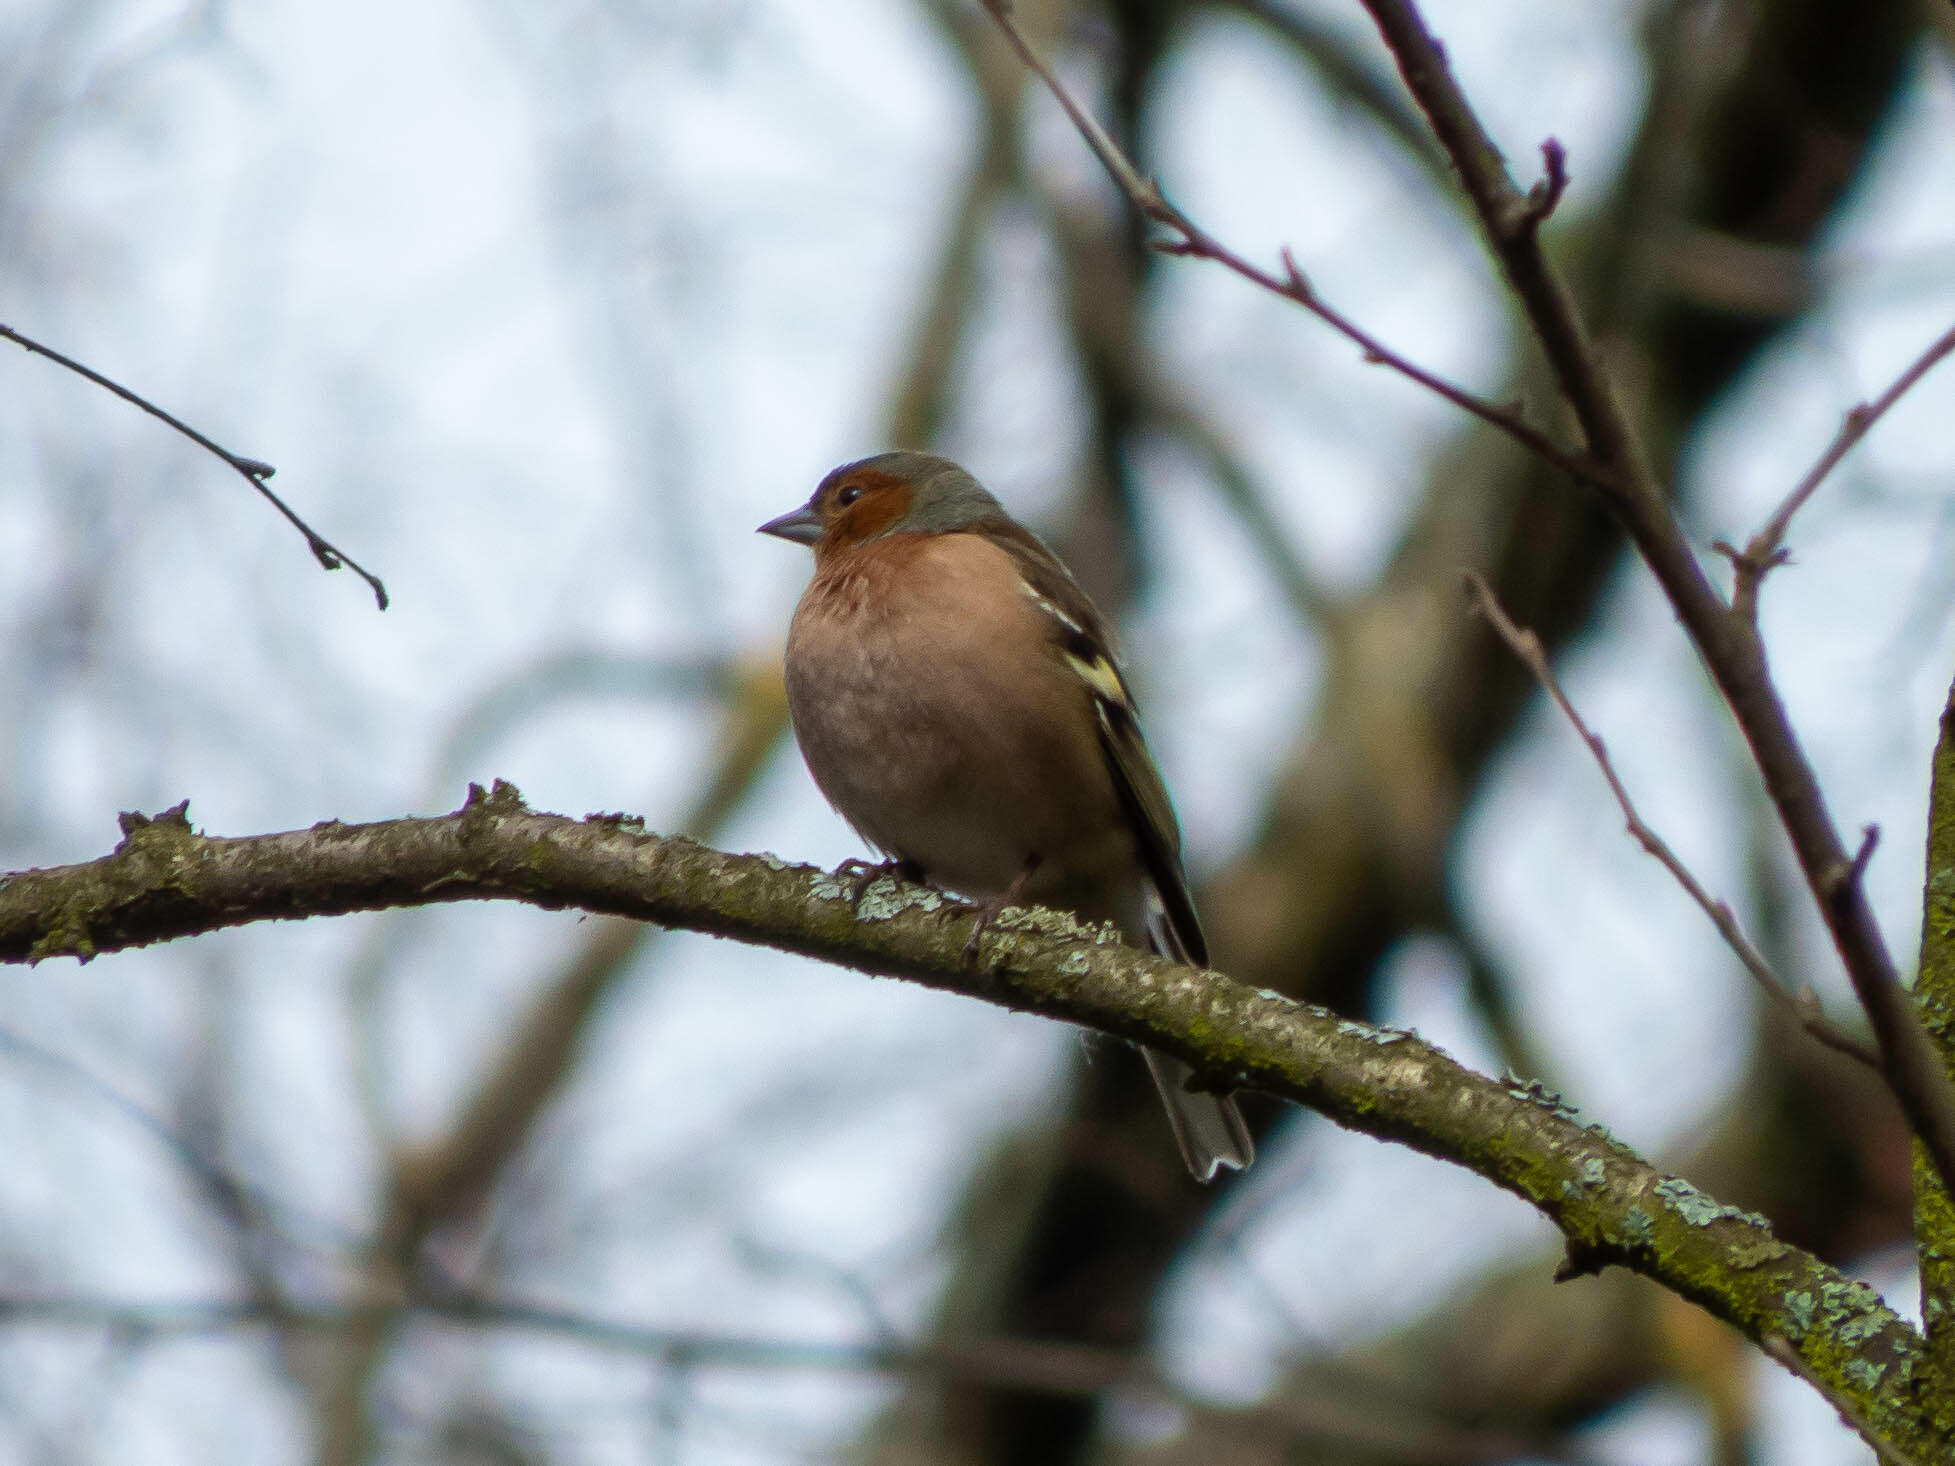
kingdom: Animalia
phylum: Chordata
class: Aves
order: Passeriformes
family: Fringillidae
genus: Fringilla
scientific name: Fringilla coelebs
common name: Common chaffinch
